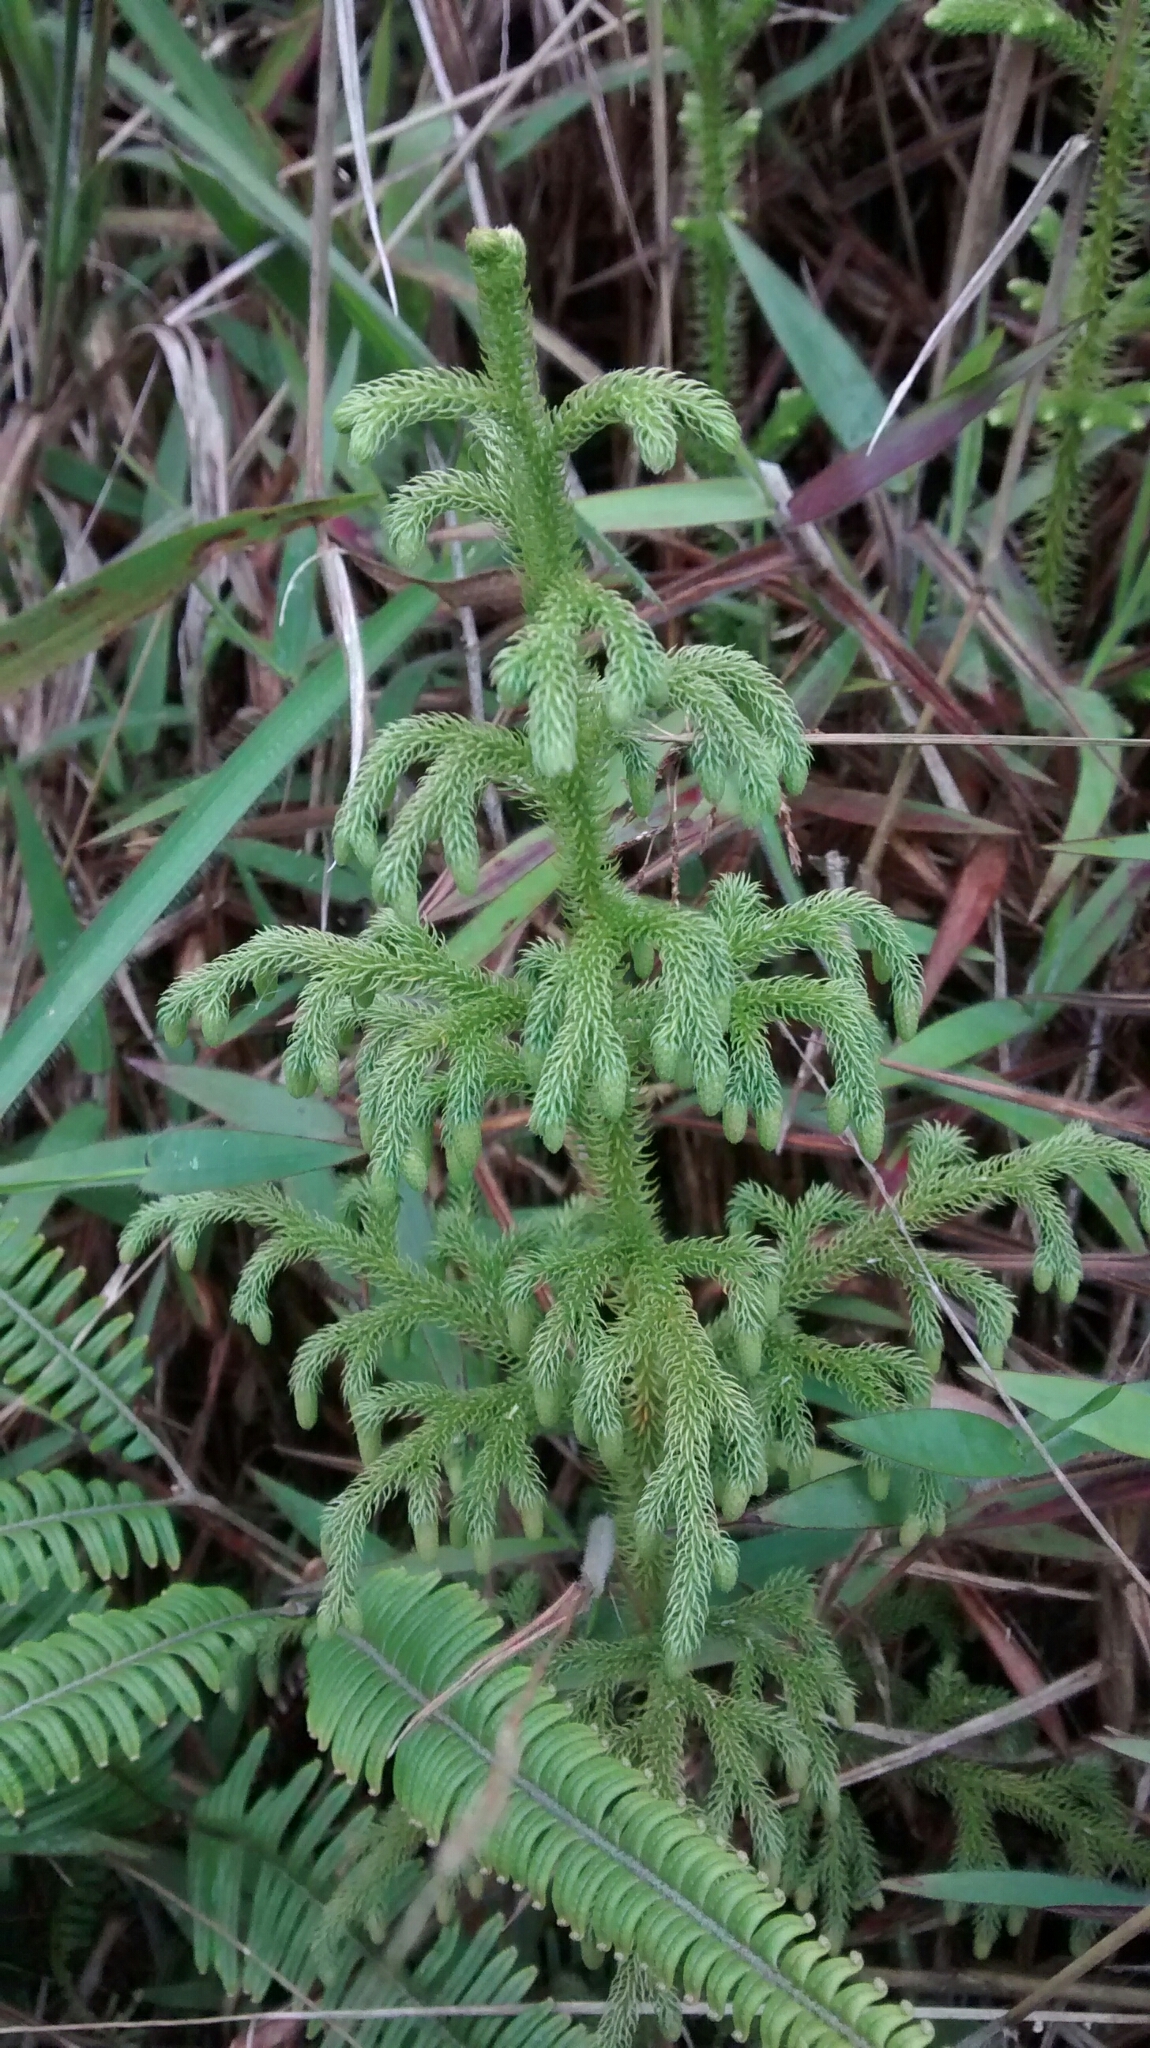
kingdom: Plantae
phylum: Tracheophyta
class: Lycopodiopsida
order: Lycopodiales
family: Lycopodiaceae
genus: Palhinhaea
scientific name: Palhinhaea cernua
